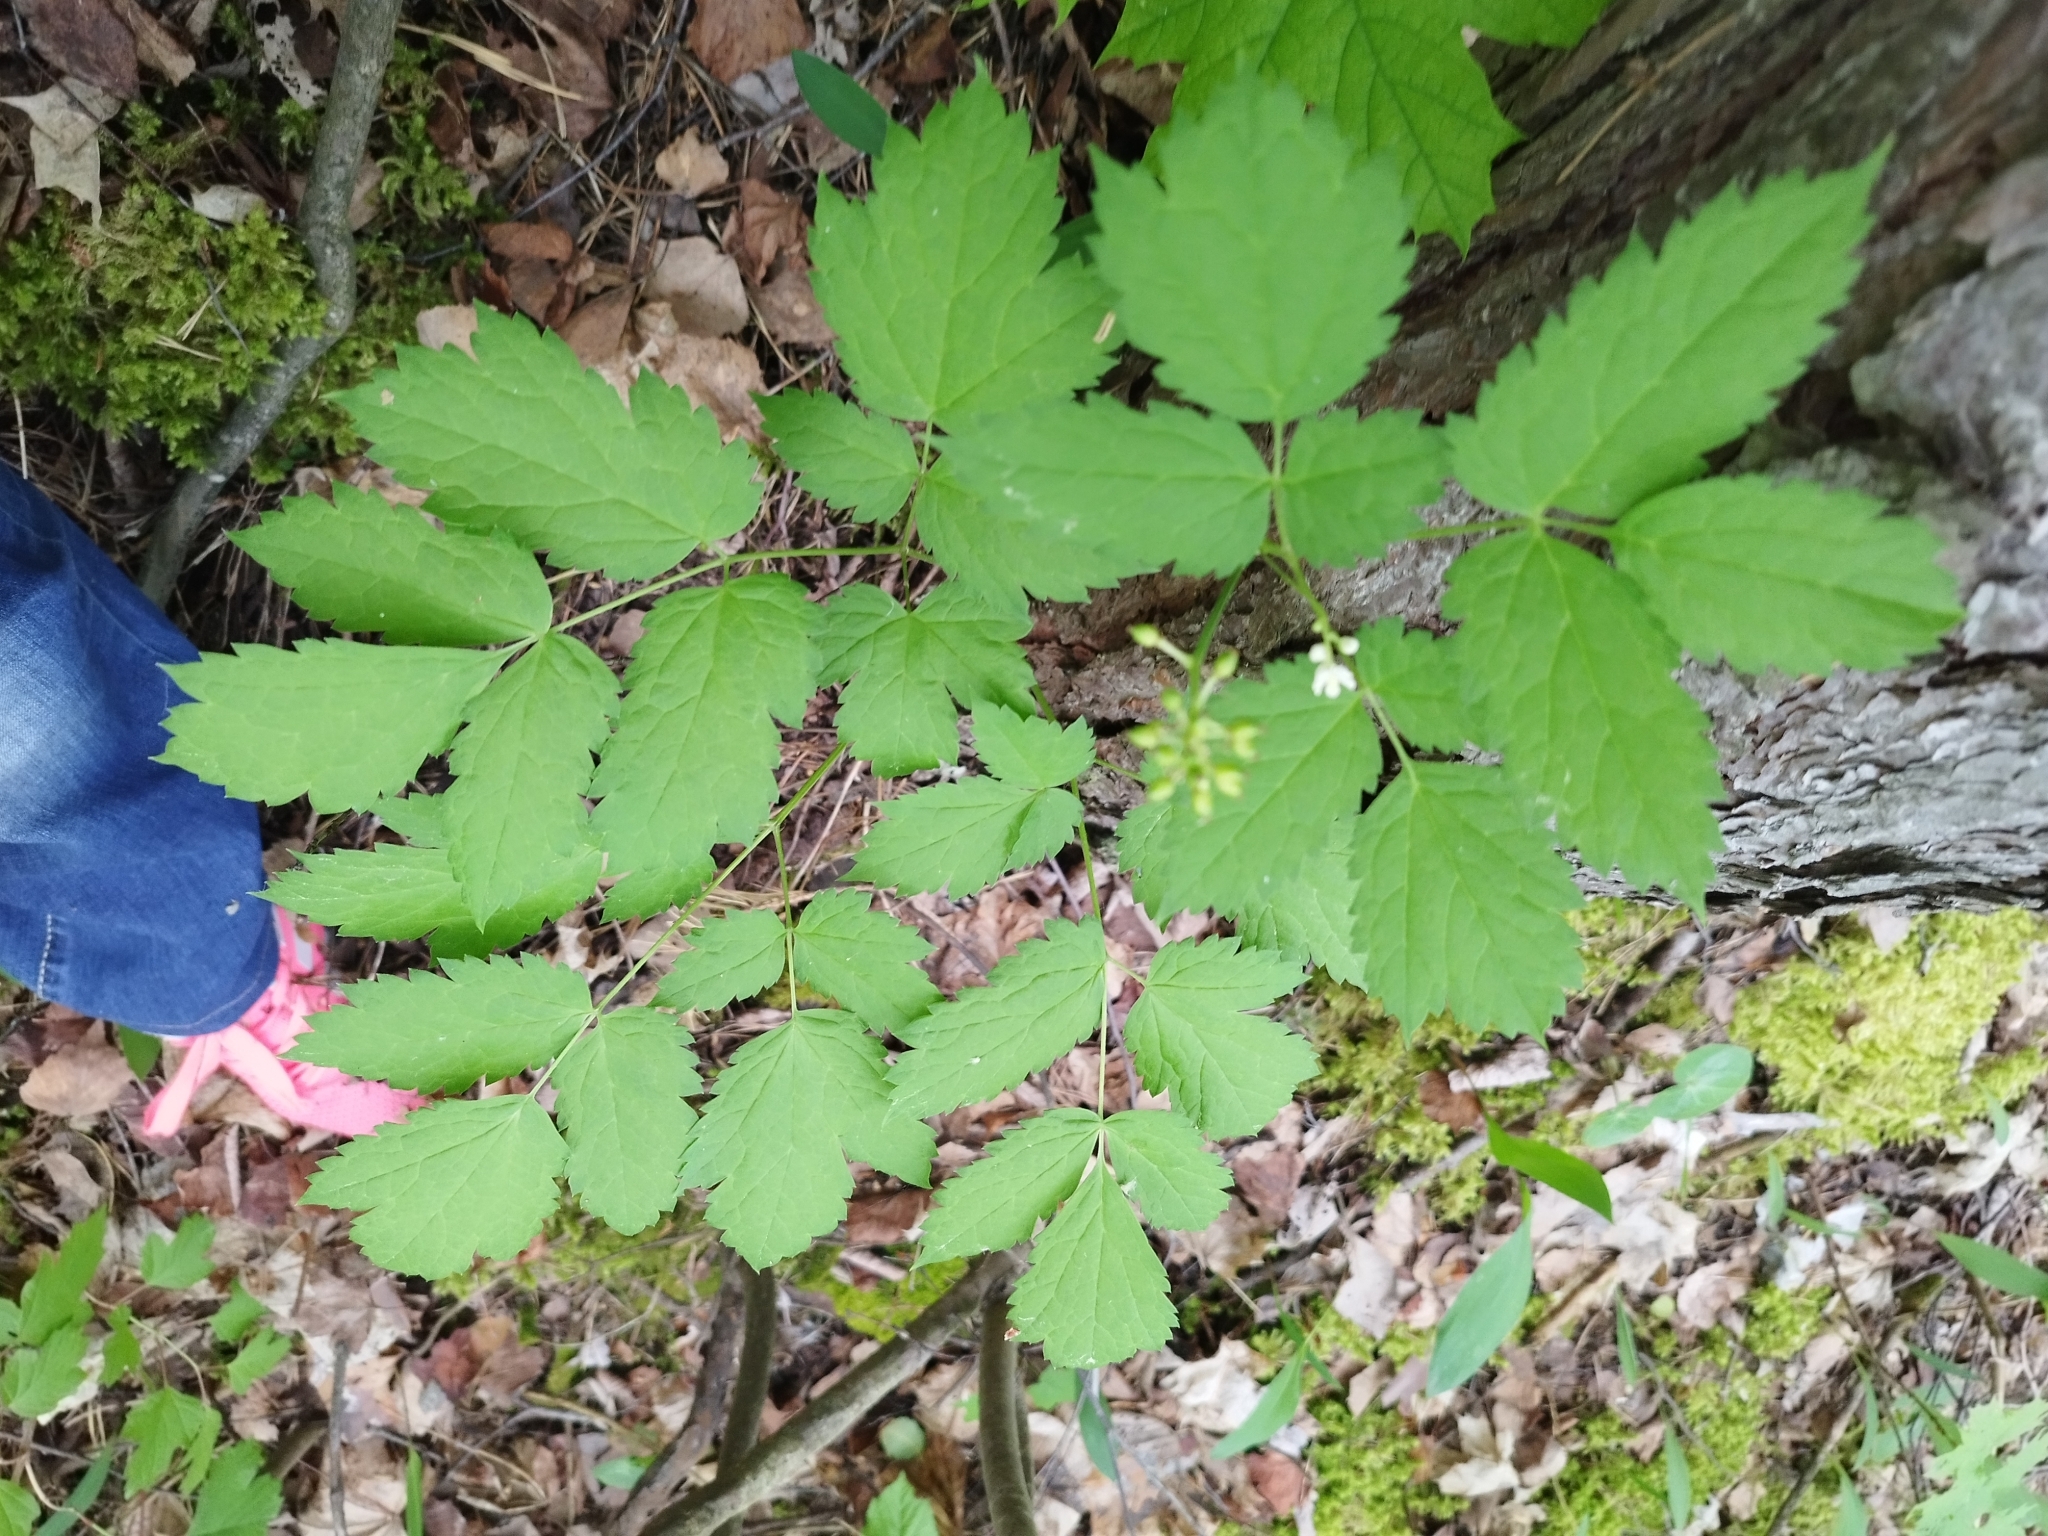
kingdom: Plantae
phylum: Tracheophyta
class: Magnoliopsida
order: Ranunculales
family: Ranunculaceae
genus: Actaea
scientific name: Actaea spicata
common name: Baneberry
